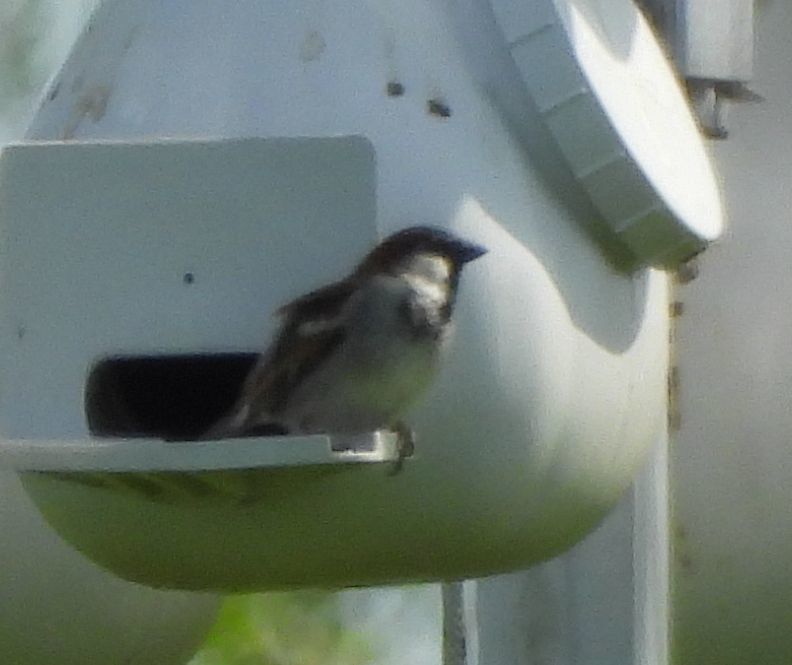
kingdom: Animalia
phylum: Chordata
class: Aves
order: Passeriformes
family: Passeridae
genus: Passer
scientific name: Passer domesticus
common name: House sparrow
